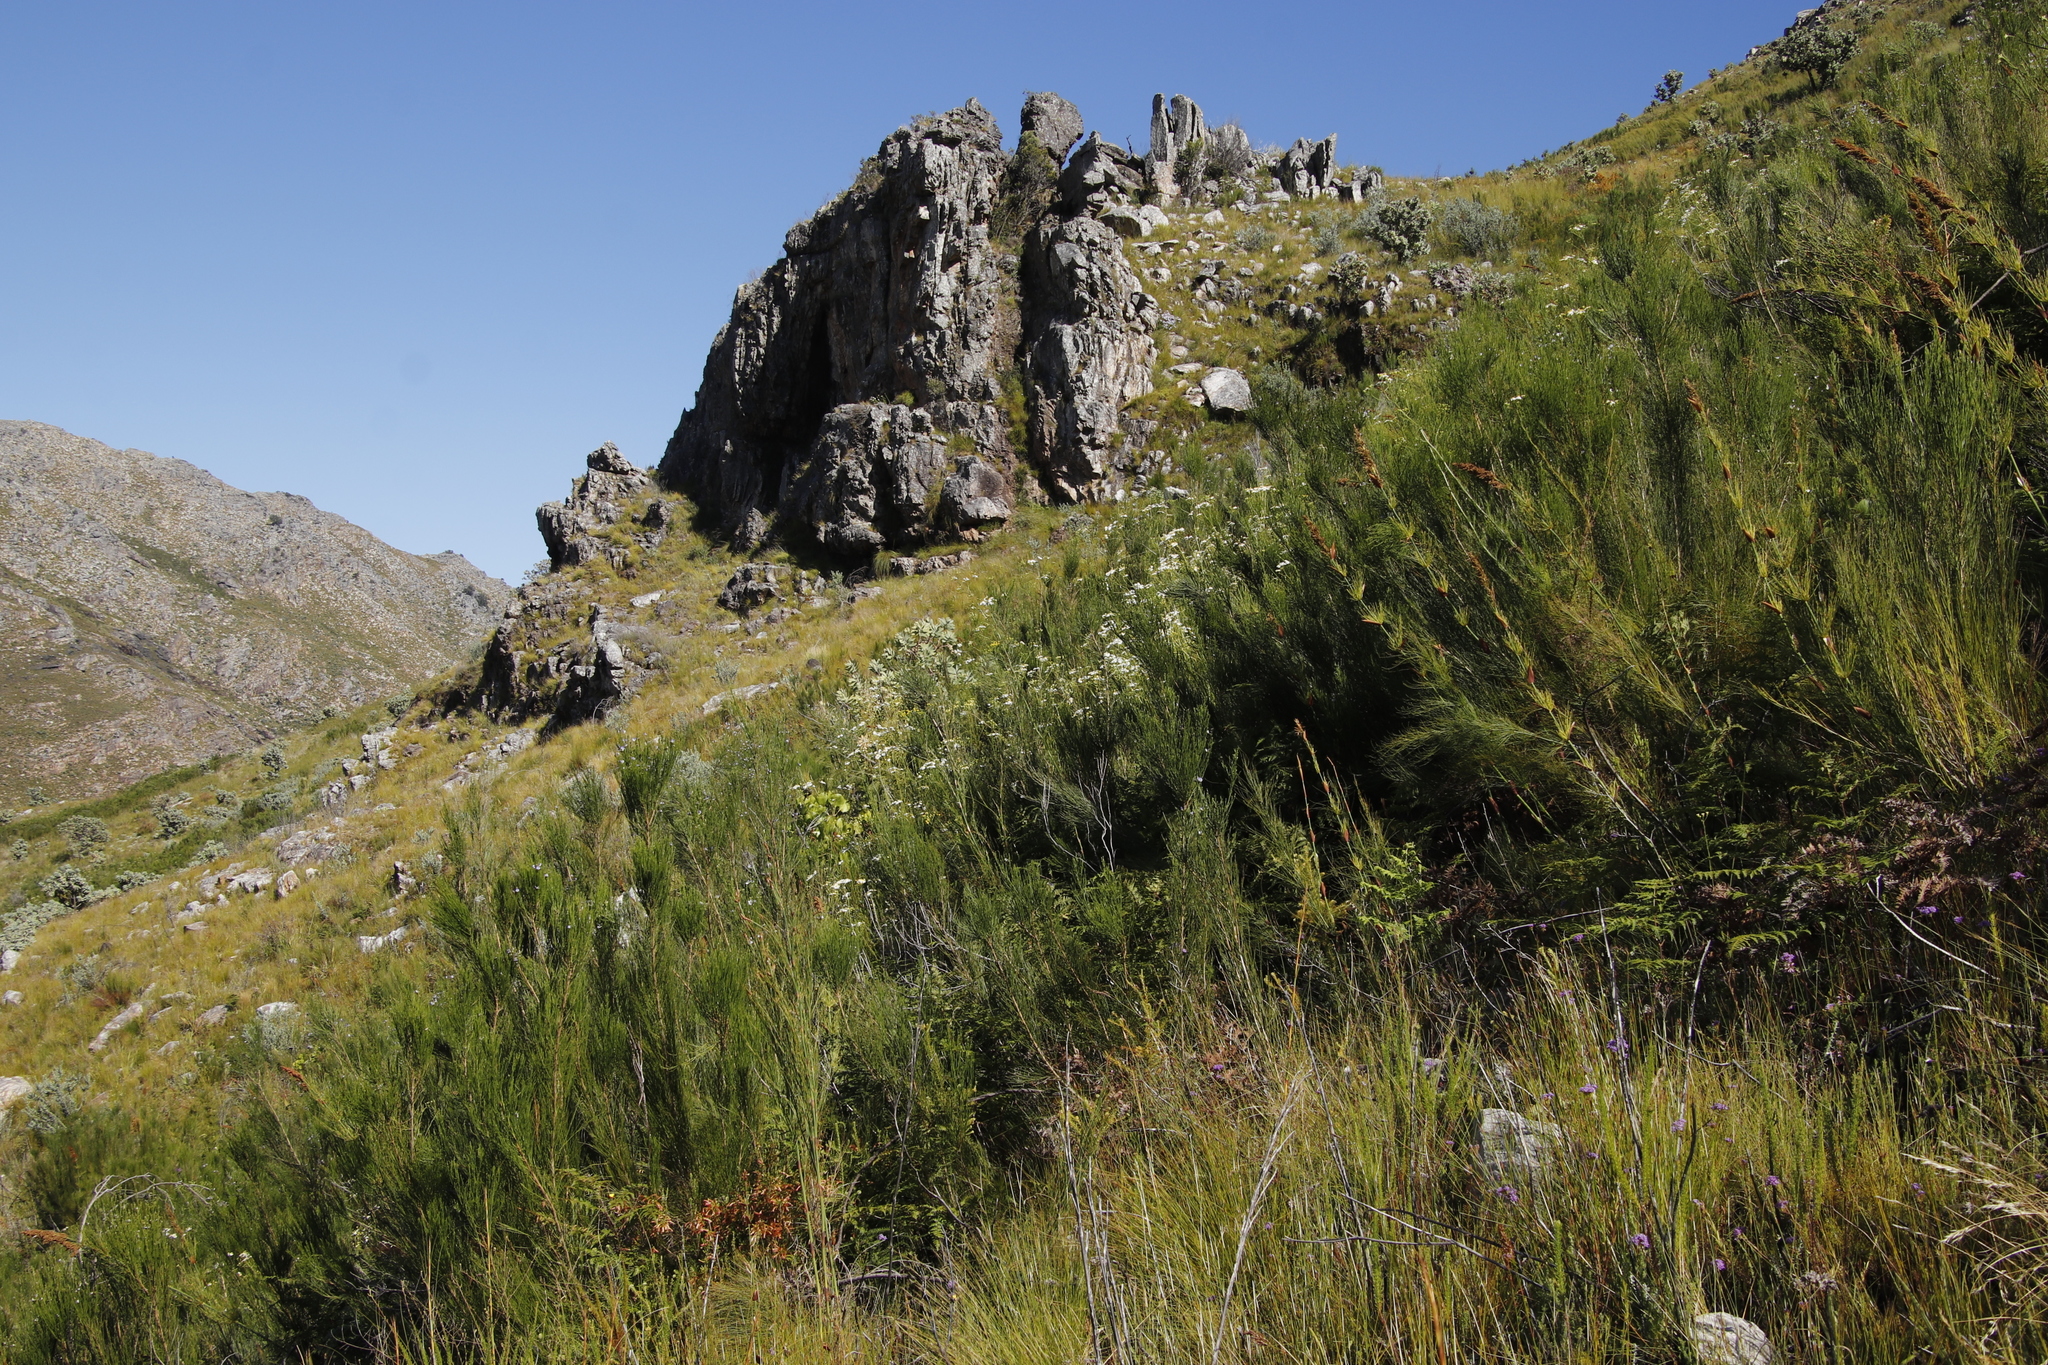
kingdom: Plantae
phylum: Tracheophyta
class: Liliopsida
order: Poales
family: Restionaceae
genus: Elegia
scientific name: Elegia capensis
